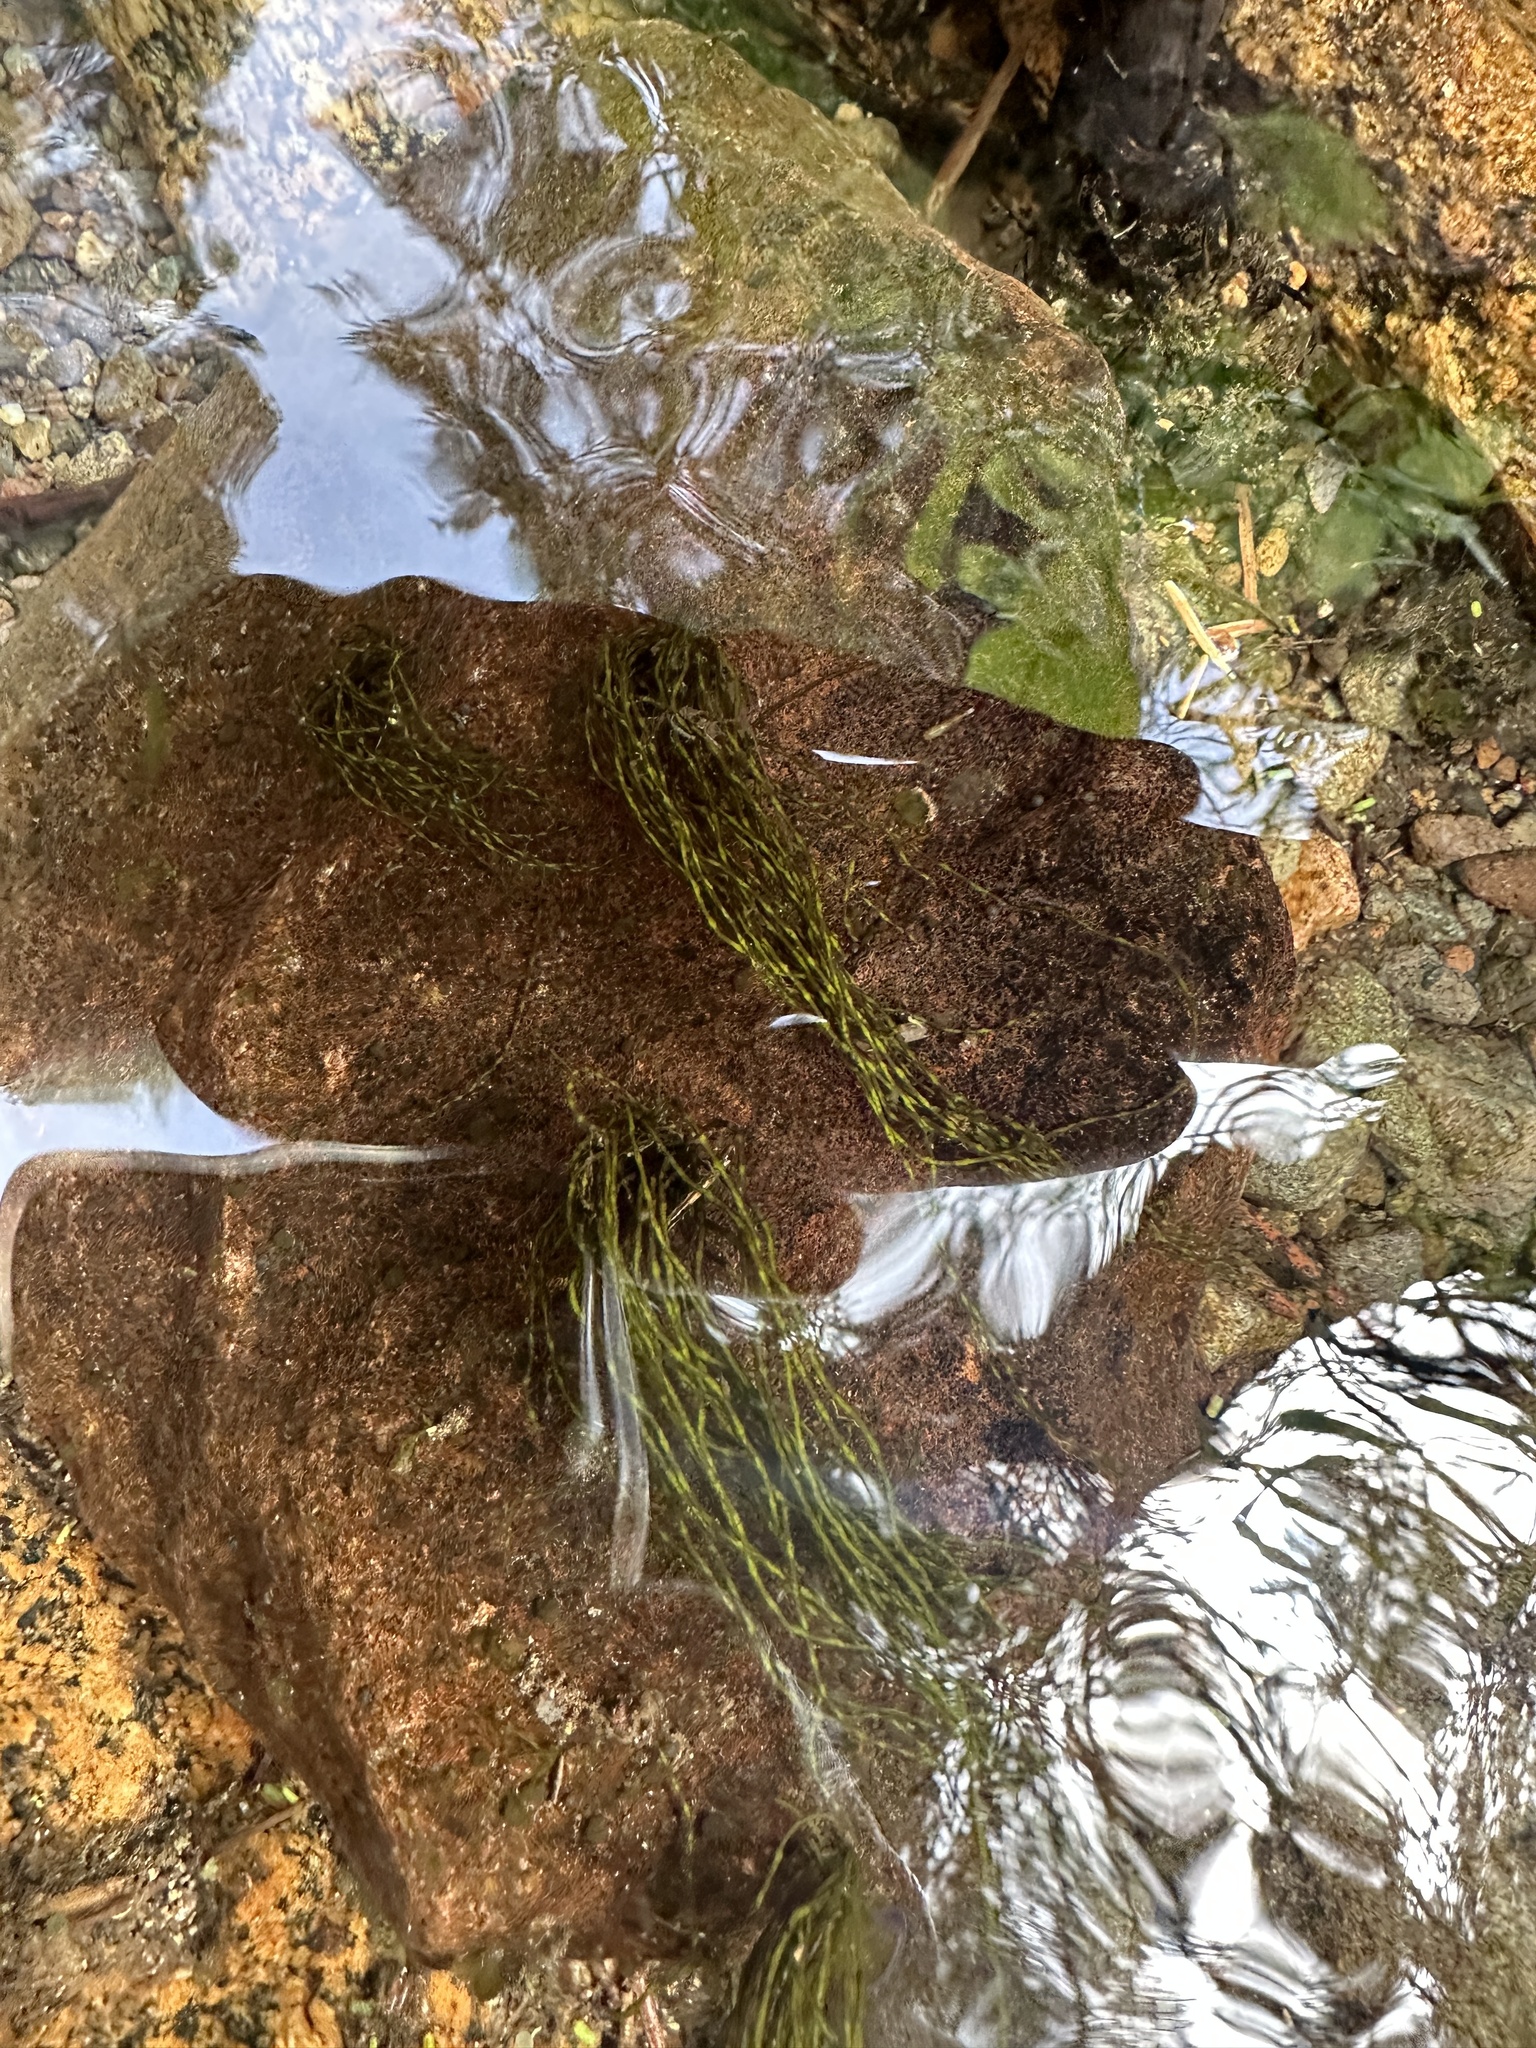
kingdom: Plantae
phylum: Rhodophyta
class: Florideophyceae
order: Batrachospermales
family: Lemaneaceae
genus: Lemanea
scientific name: Lemanea fluviatilis
